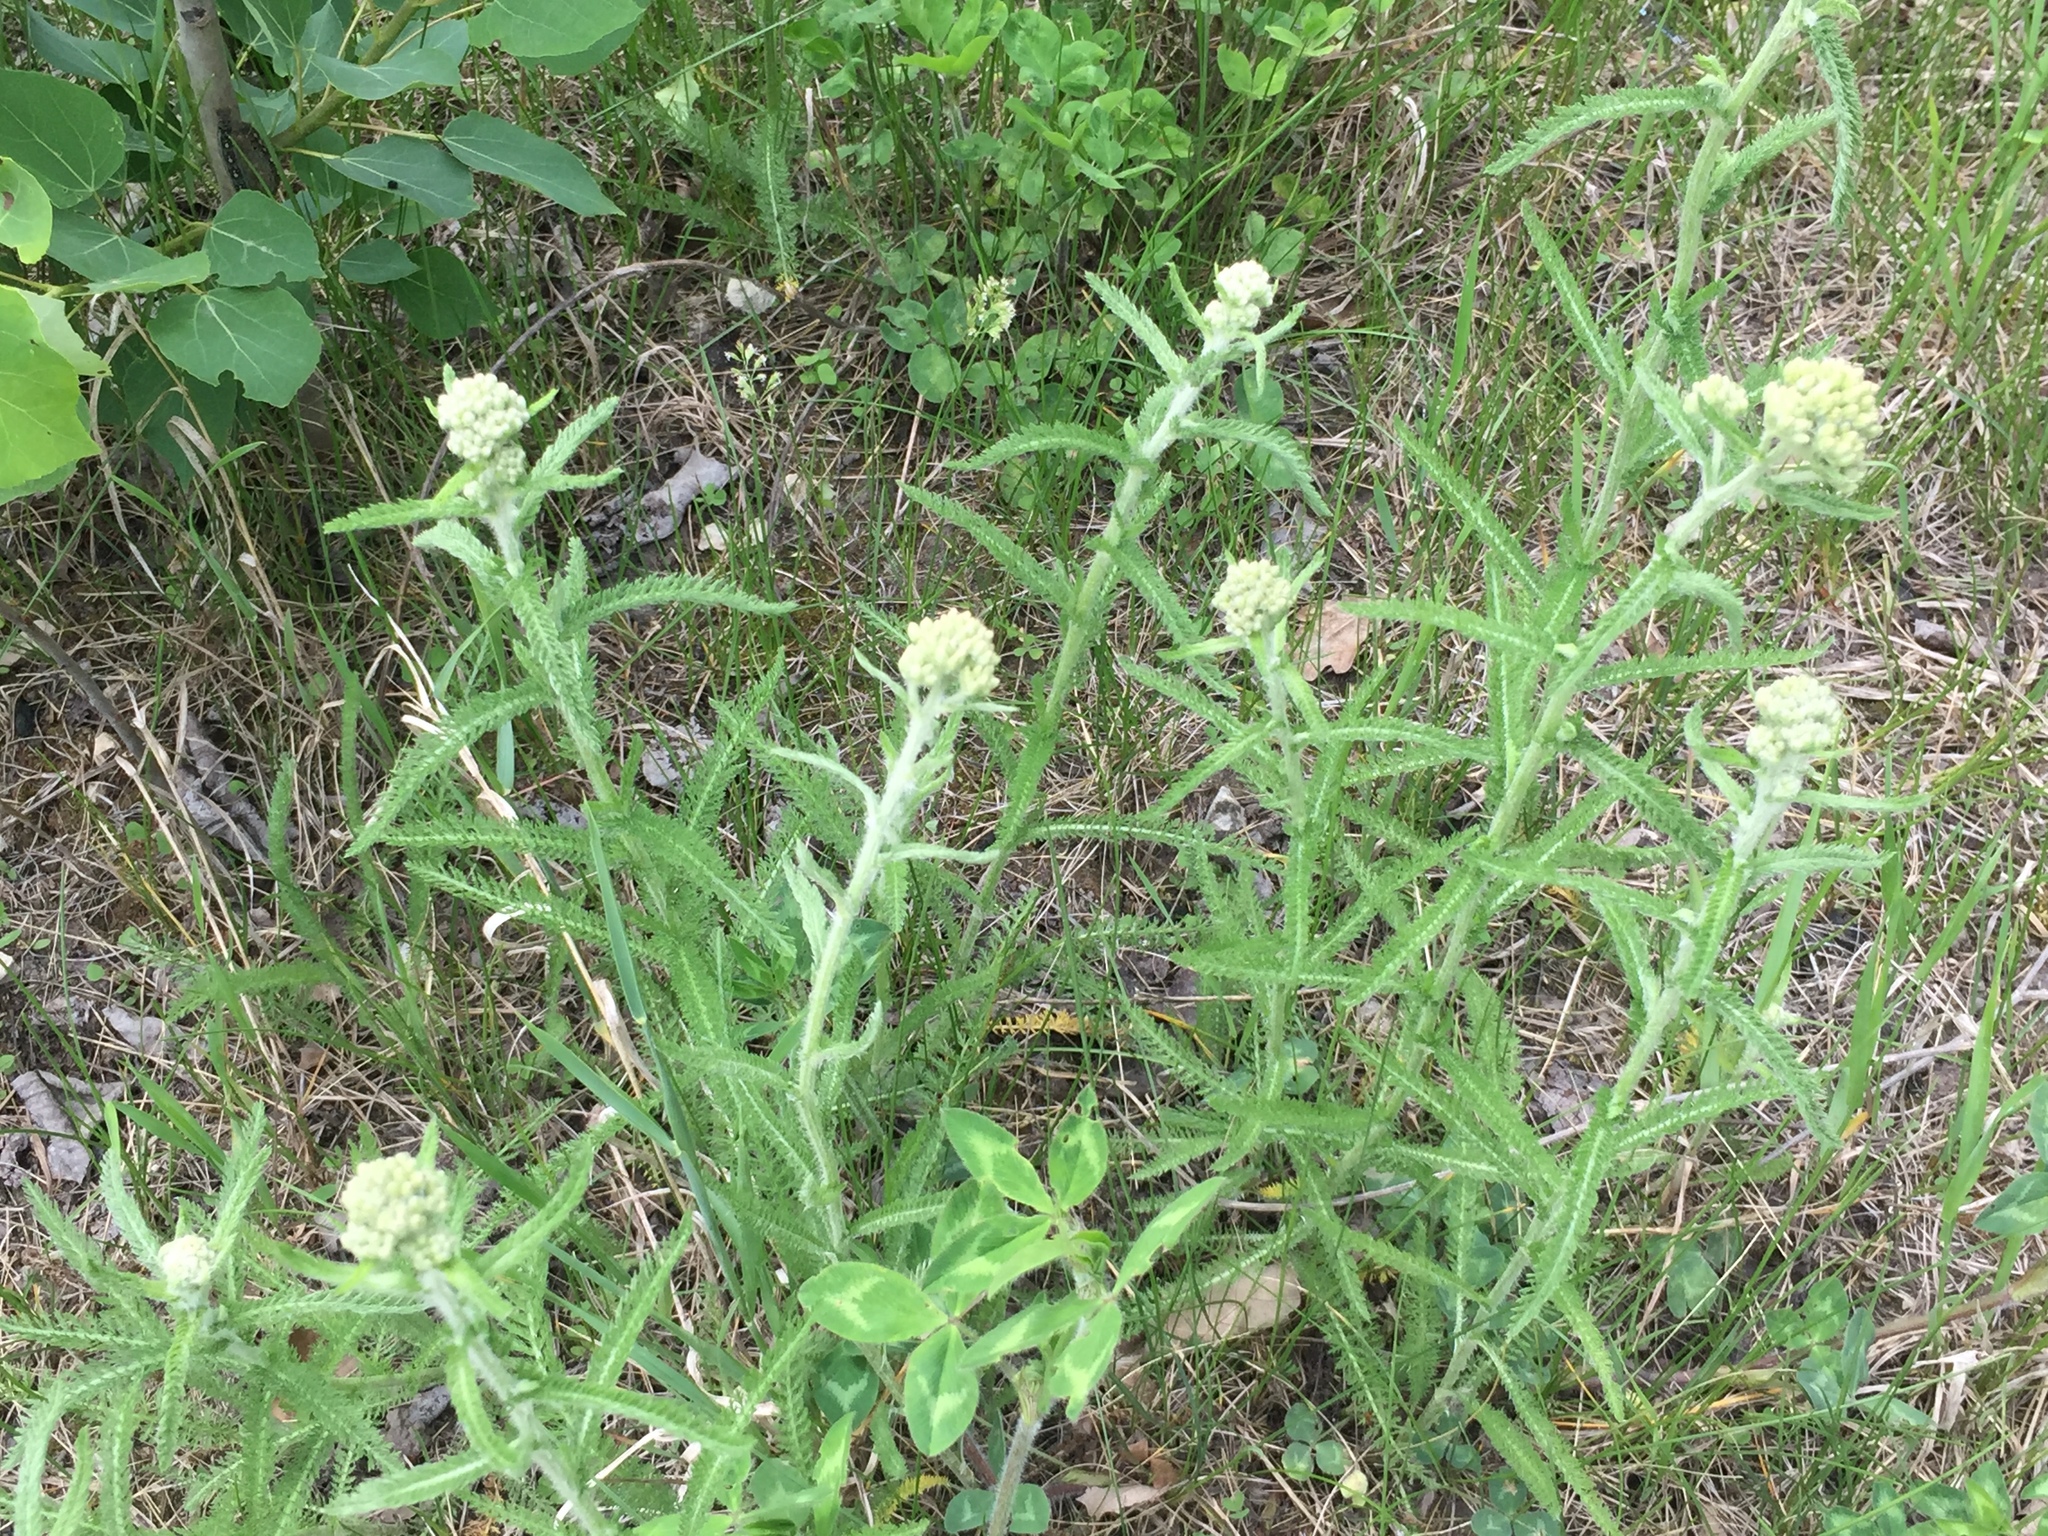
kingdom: Plantae
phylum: Tracheophyta
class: Magnoliopsida
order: Asterales
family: Asteraceae
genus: Achillea
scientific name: Achillea millefolium
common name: Yarrow
